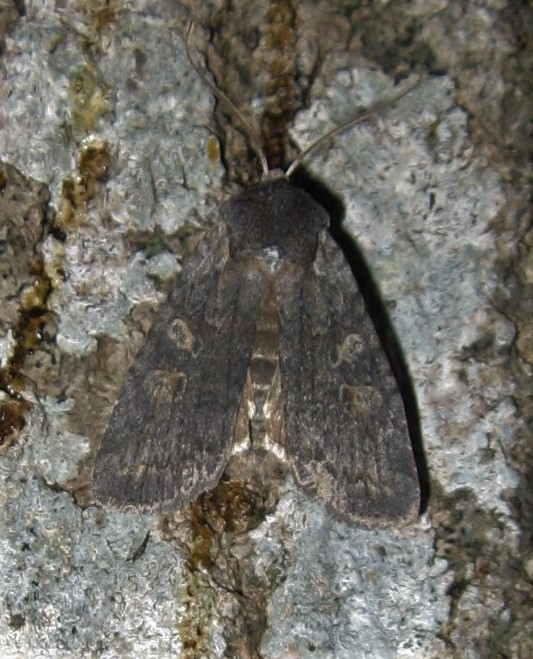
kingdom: Animalia
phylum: Arthropoda
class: Insecta
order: Lepidoptera
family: Noctuidae
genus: Lithophane
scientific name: Lithophane laticinerea
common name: Broad ashen pinion
